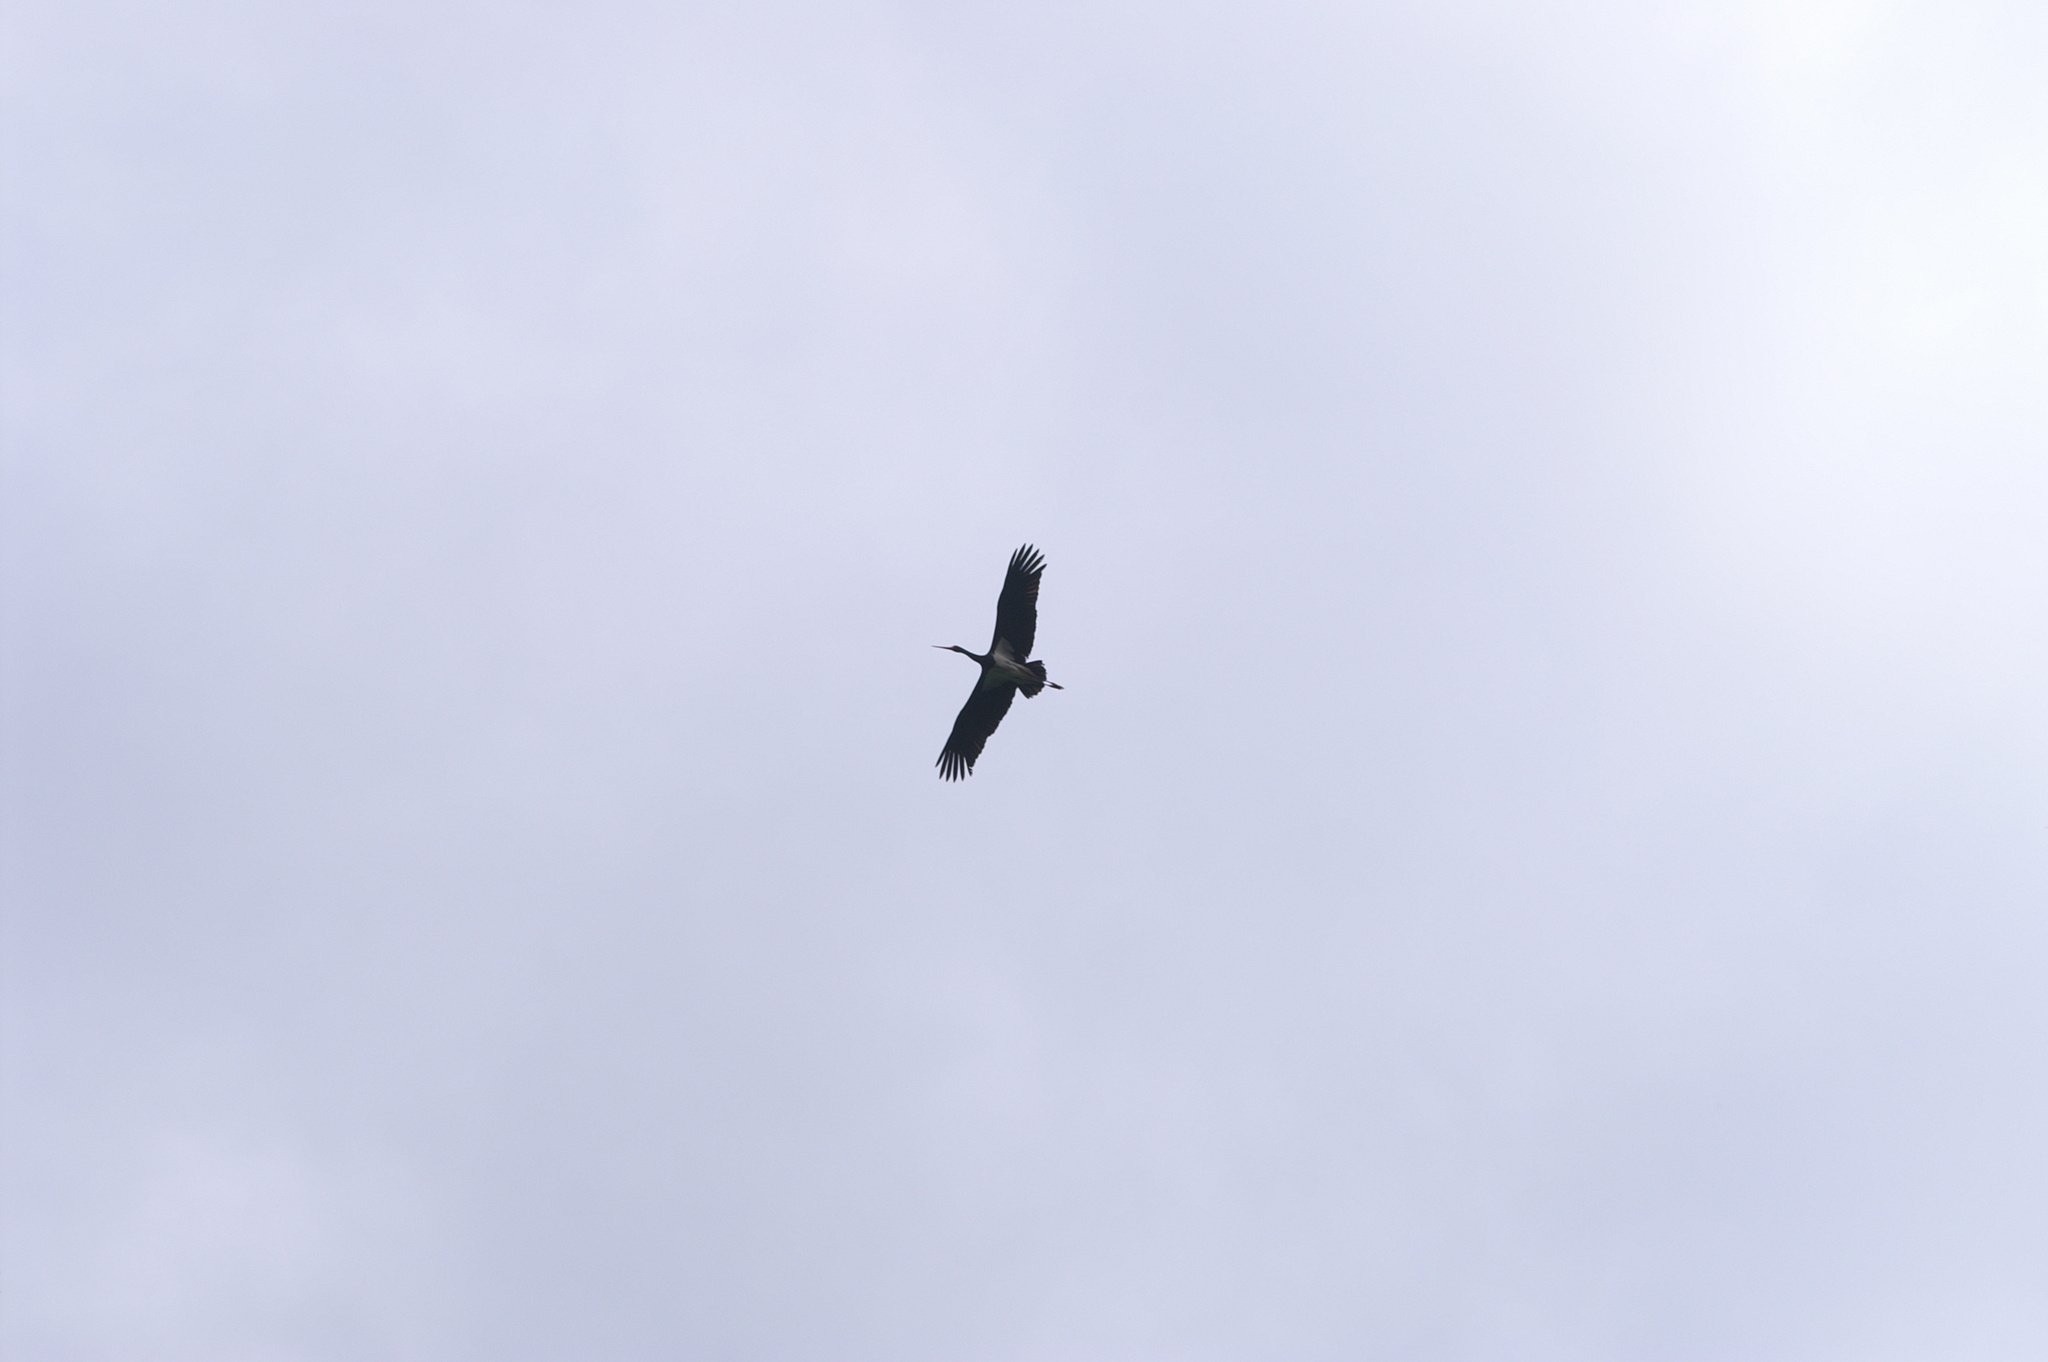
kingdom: Animalia
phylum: Chordata
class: Aves
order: Ciconiiformes
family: Ciconiidae
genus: Ciconia
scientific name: Ciconia nigra
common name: Black stork
